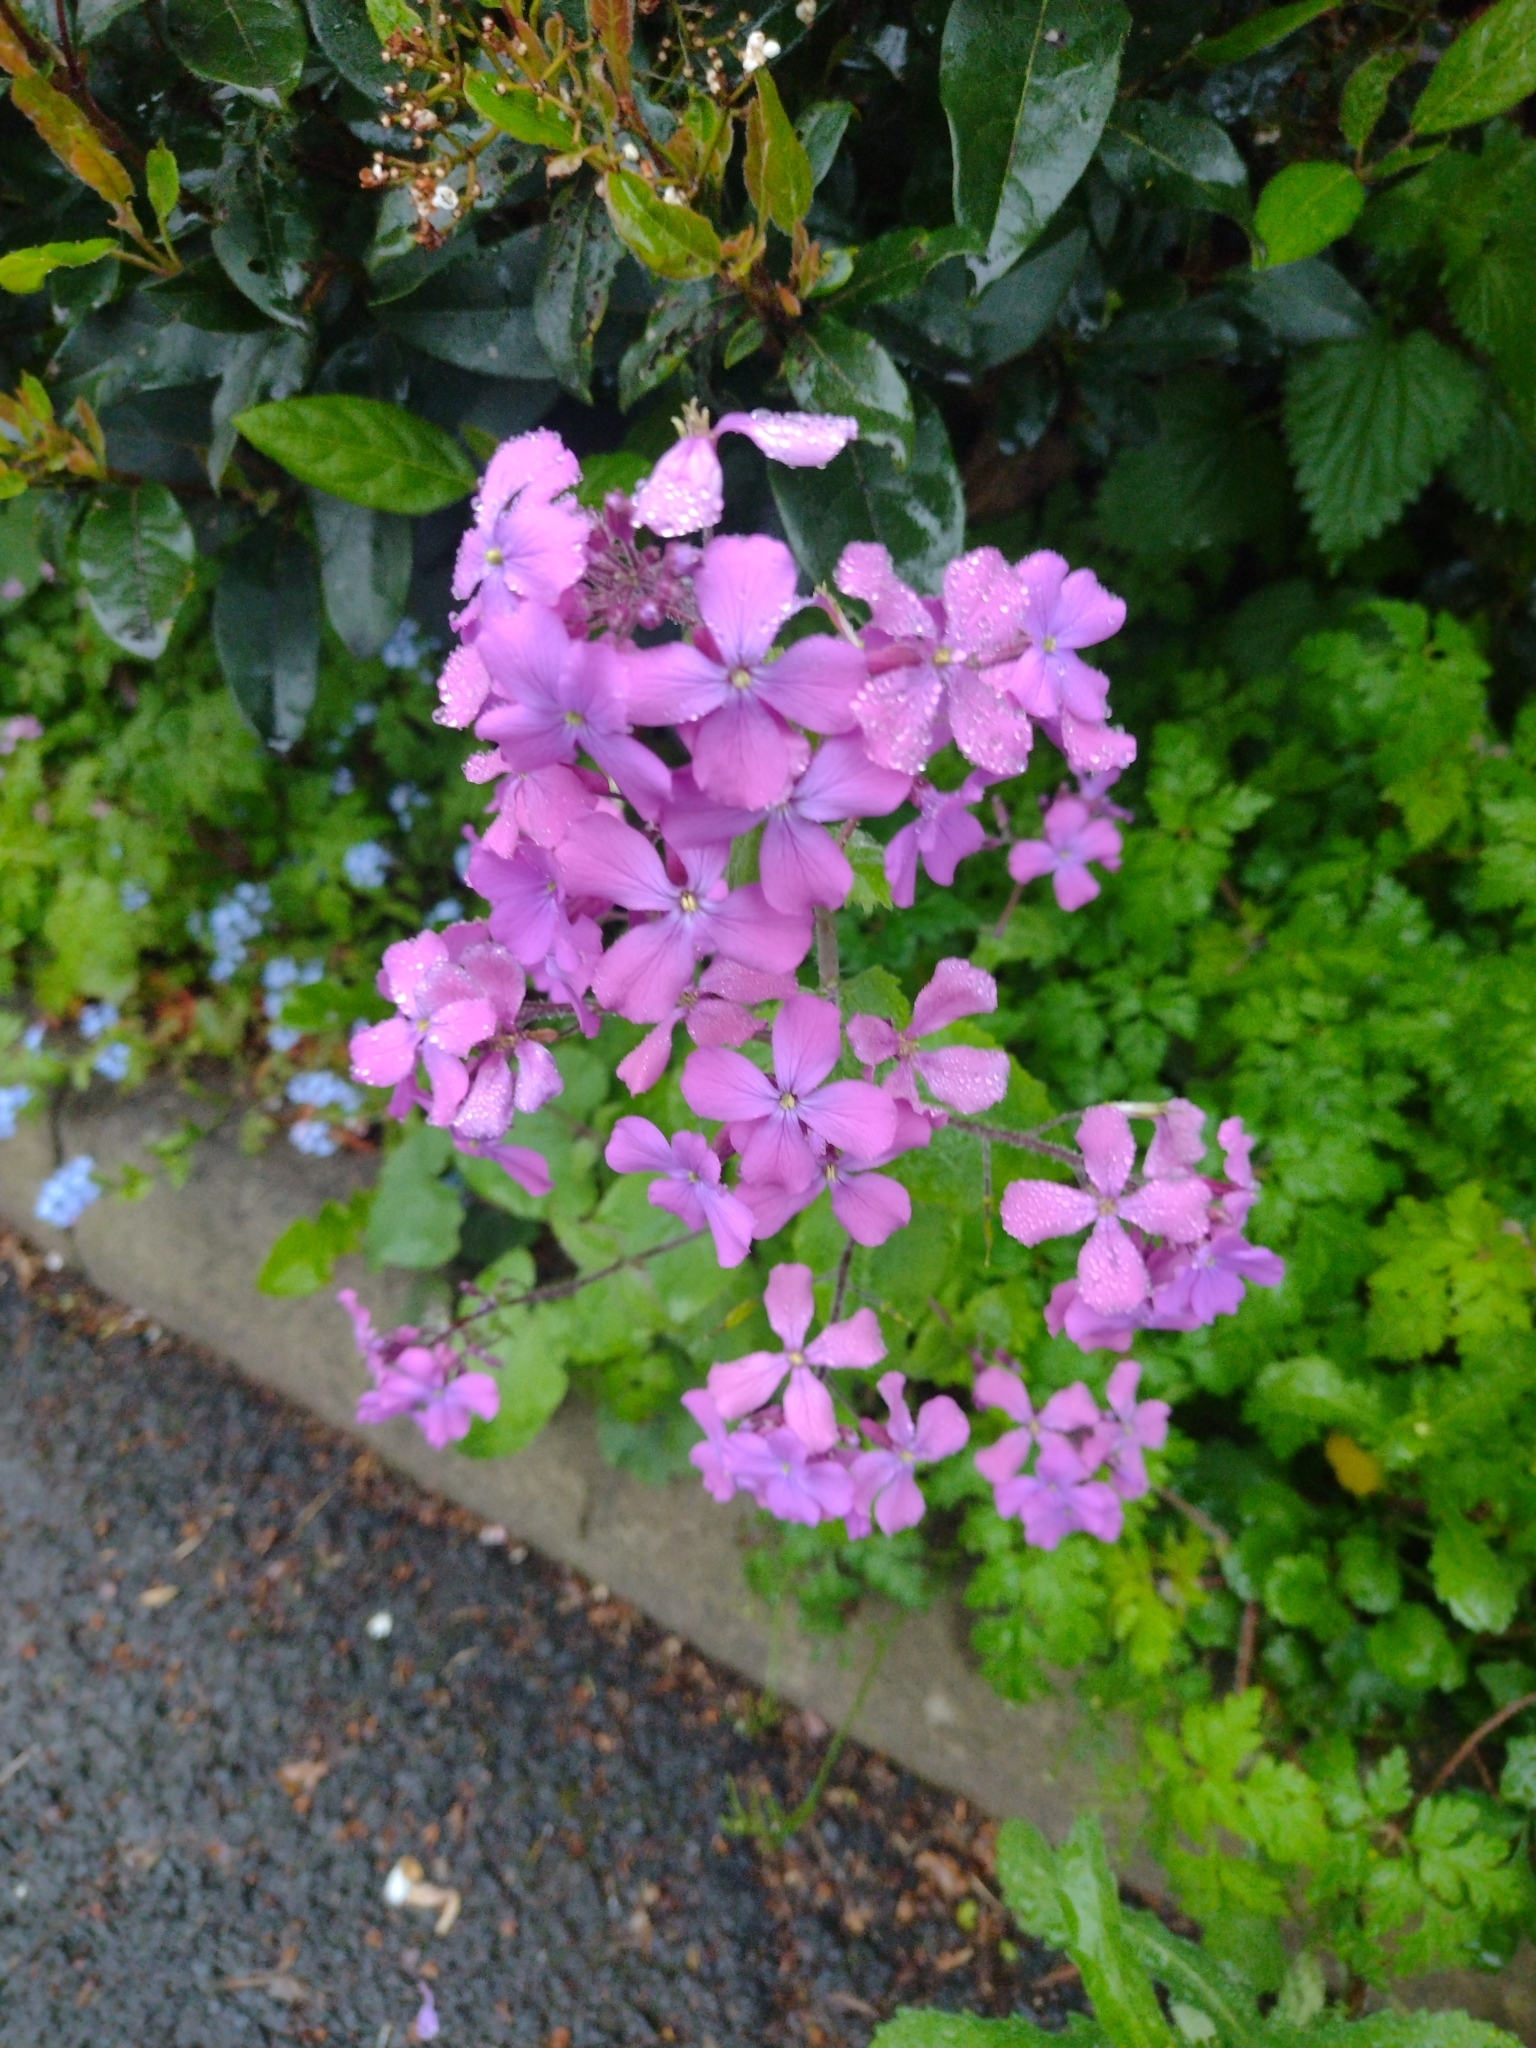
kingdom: Plantae
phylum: Tracheophyta
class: Magnoliopsida
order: Brassicales
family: Brassicaceae
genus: Lunaria
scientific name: Lunaria annua
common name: Honesty
